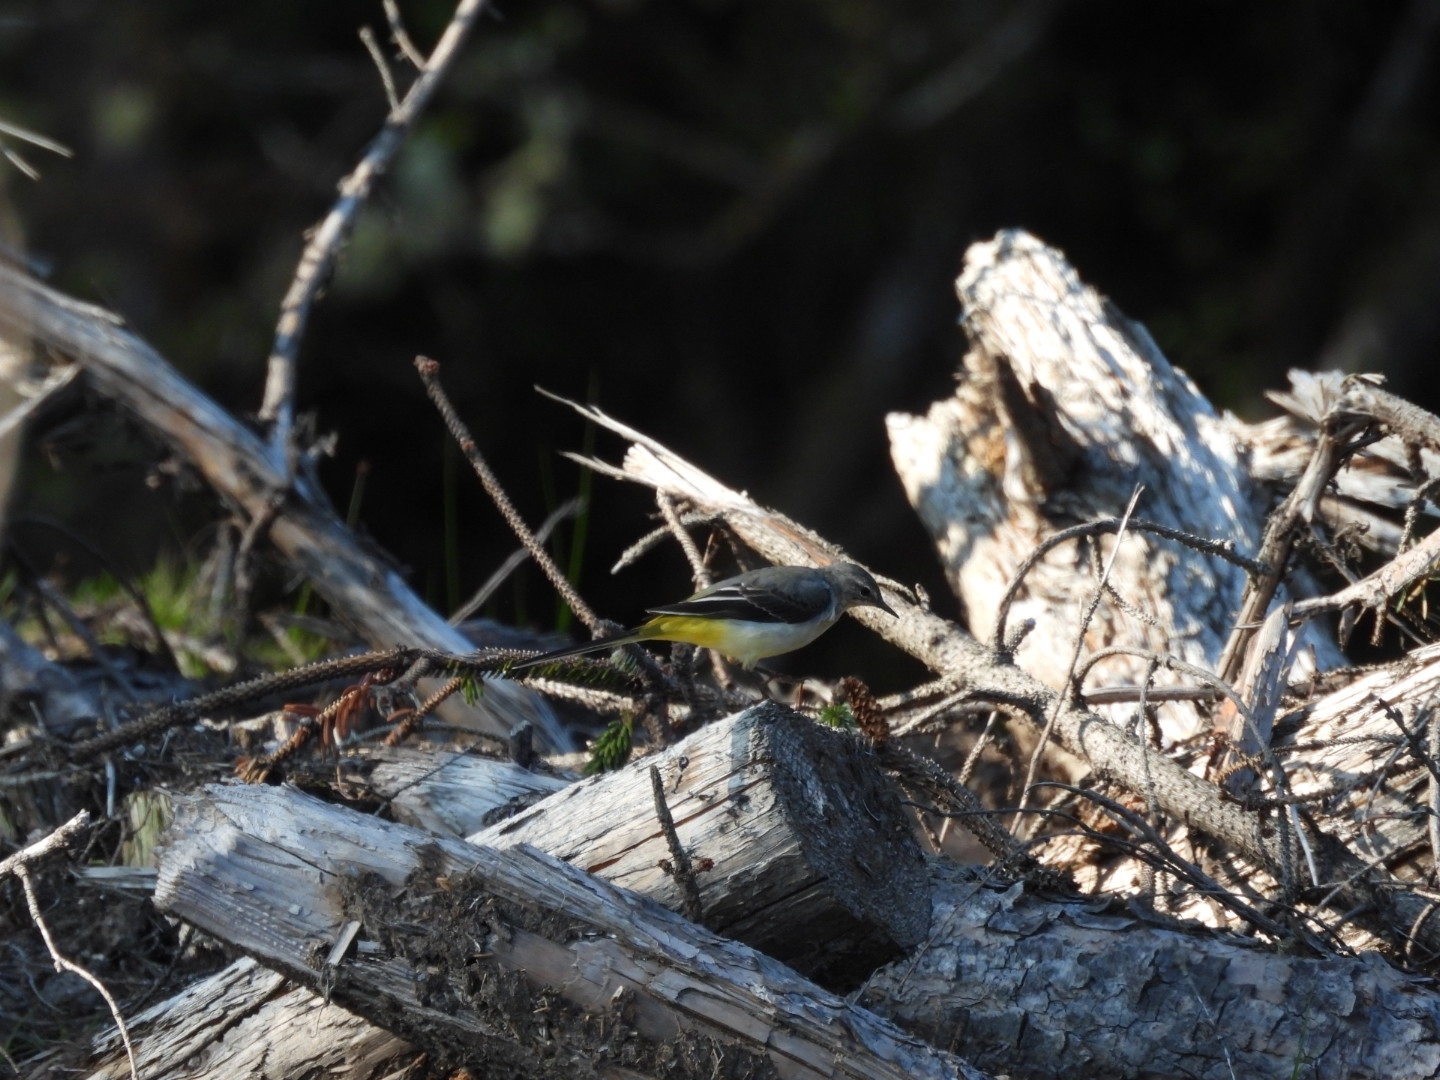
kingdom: Animalia
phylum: Chordata
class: Aves
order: Passeriformes
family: Motacillidae
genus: Motacilla
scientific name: Motacilla cinerea
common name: Grey wagtail
